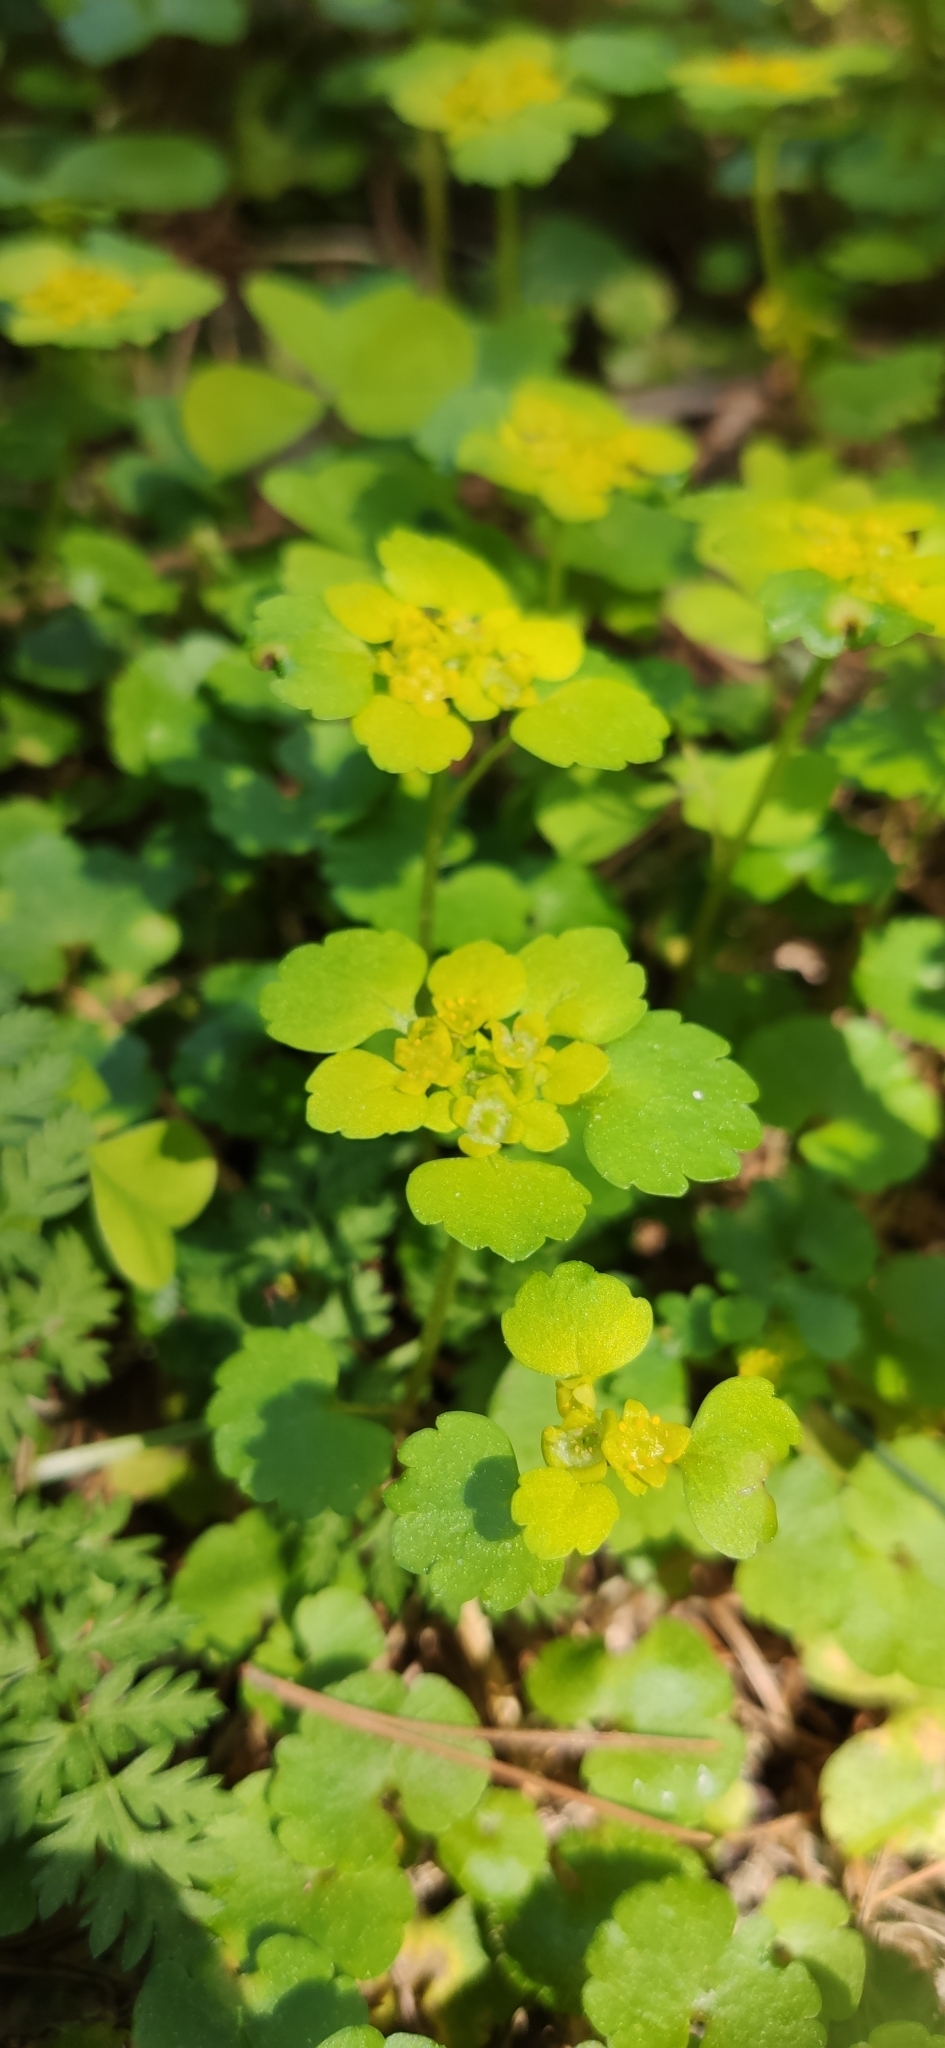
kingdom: Plantae
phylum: Tracheophyta
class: Magnoliopsida
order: Saxifragales
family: Saxifragaceae
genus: Chrysosplenium
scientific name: Chrysosplenium alternifolium
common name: Alternate-leaved golden-saxifrage
